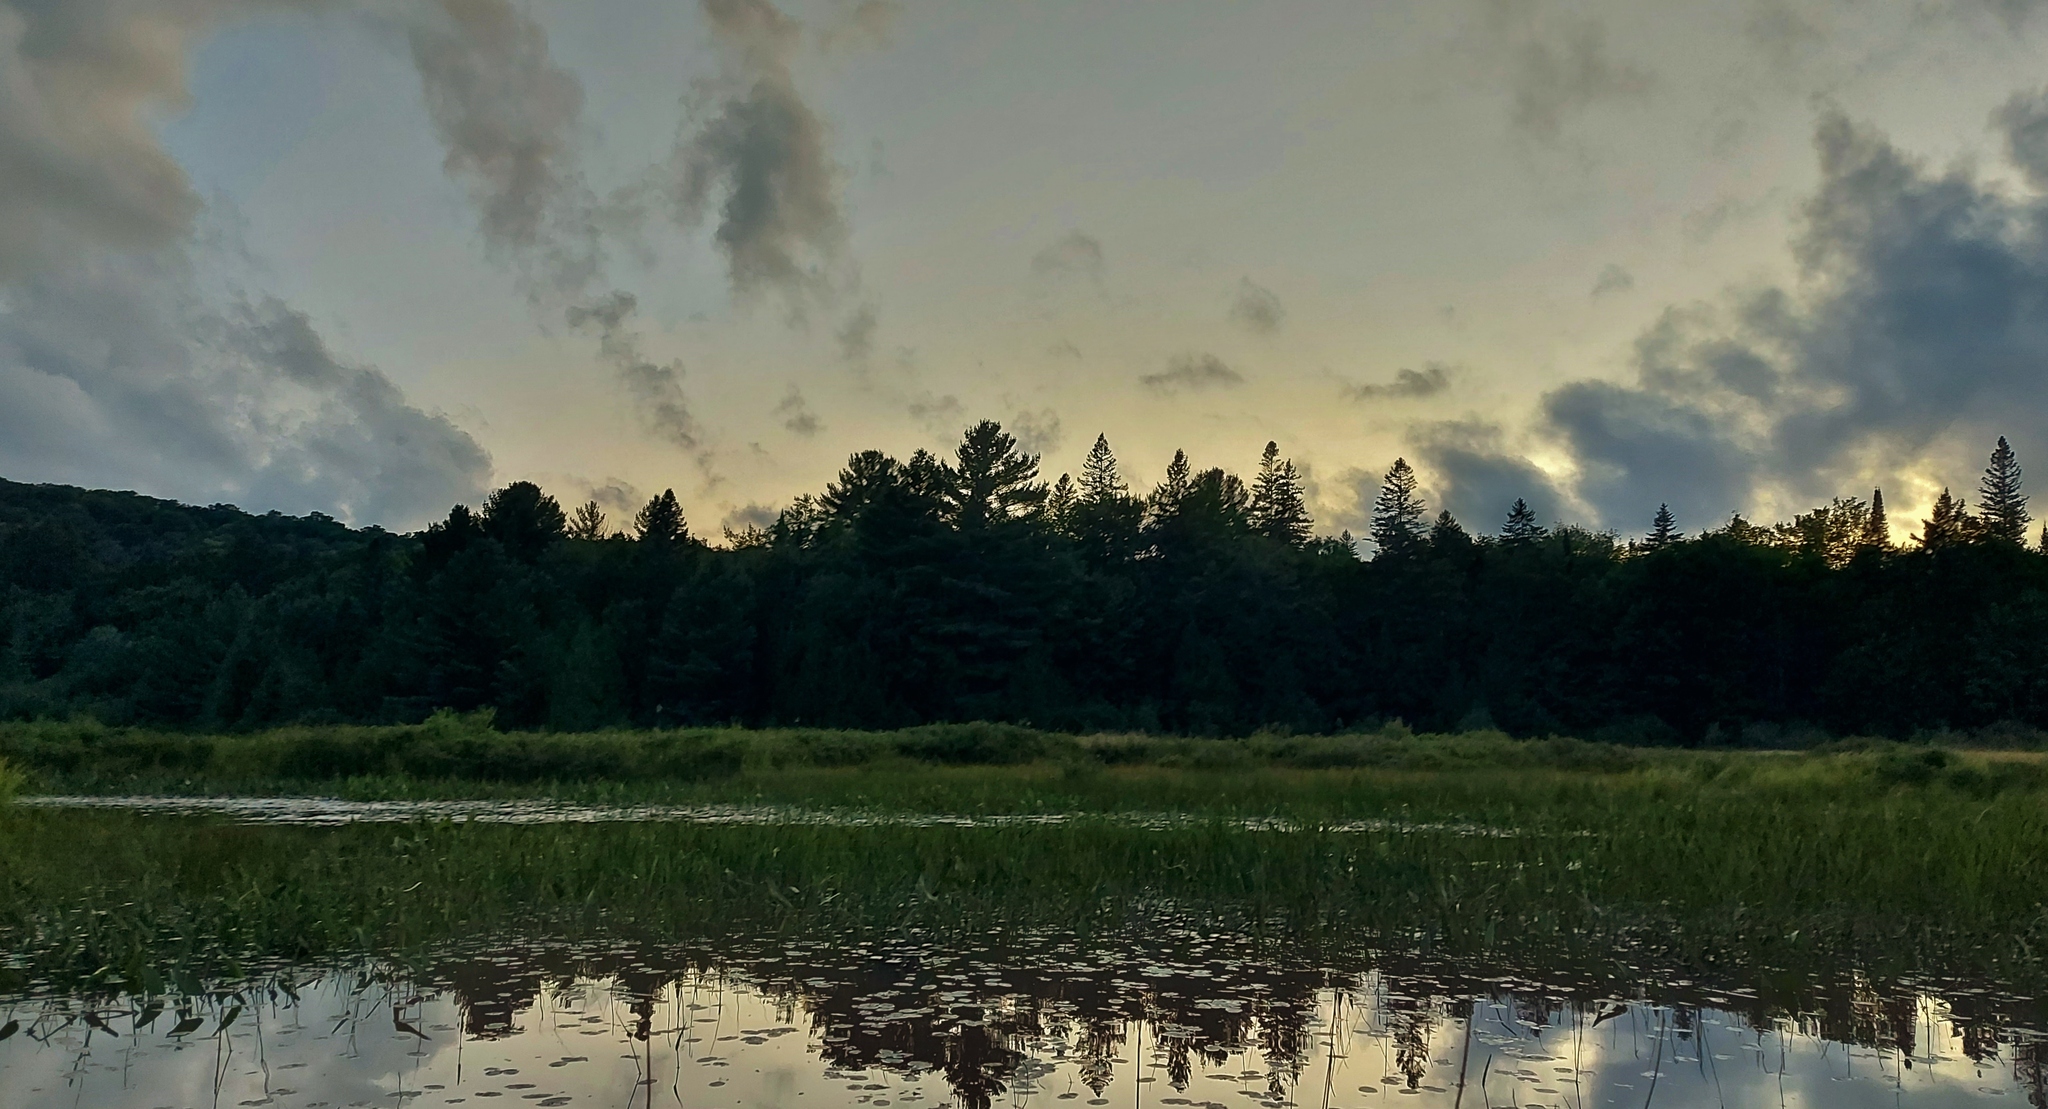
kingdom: Animalia
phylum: Chordata
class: Mammalia
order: Chiroptera
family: Vespertilionidae
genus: Lasionycteris
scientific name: Lasionycteris noctivagans
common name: Silver-haired bat
